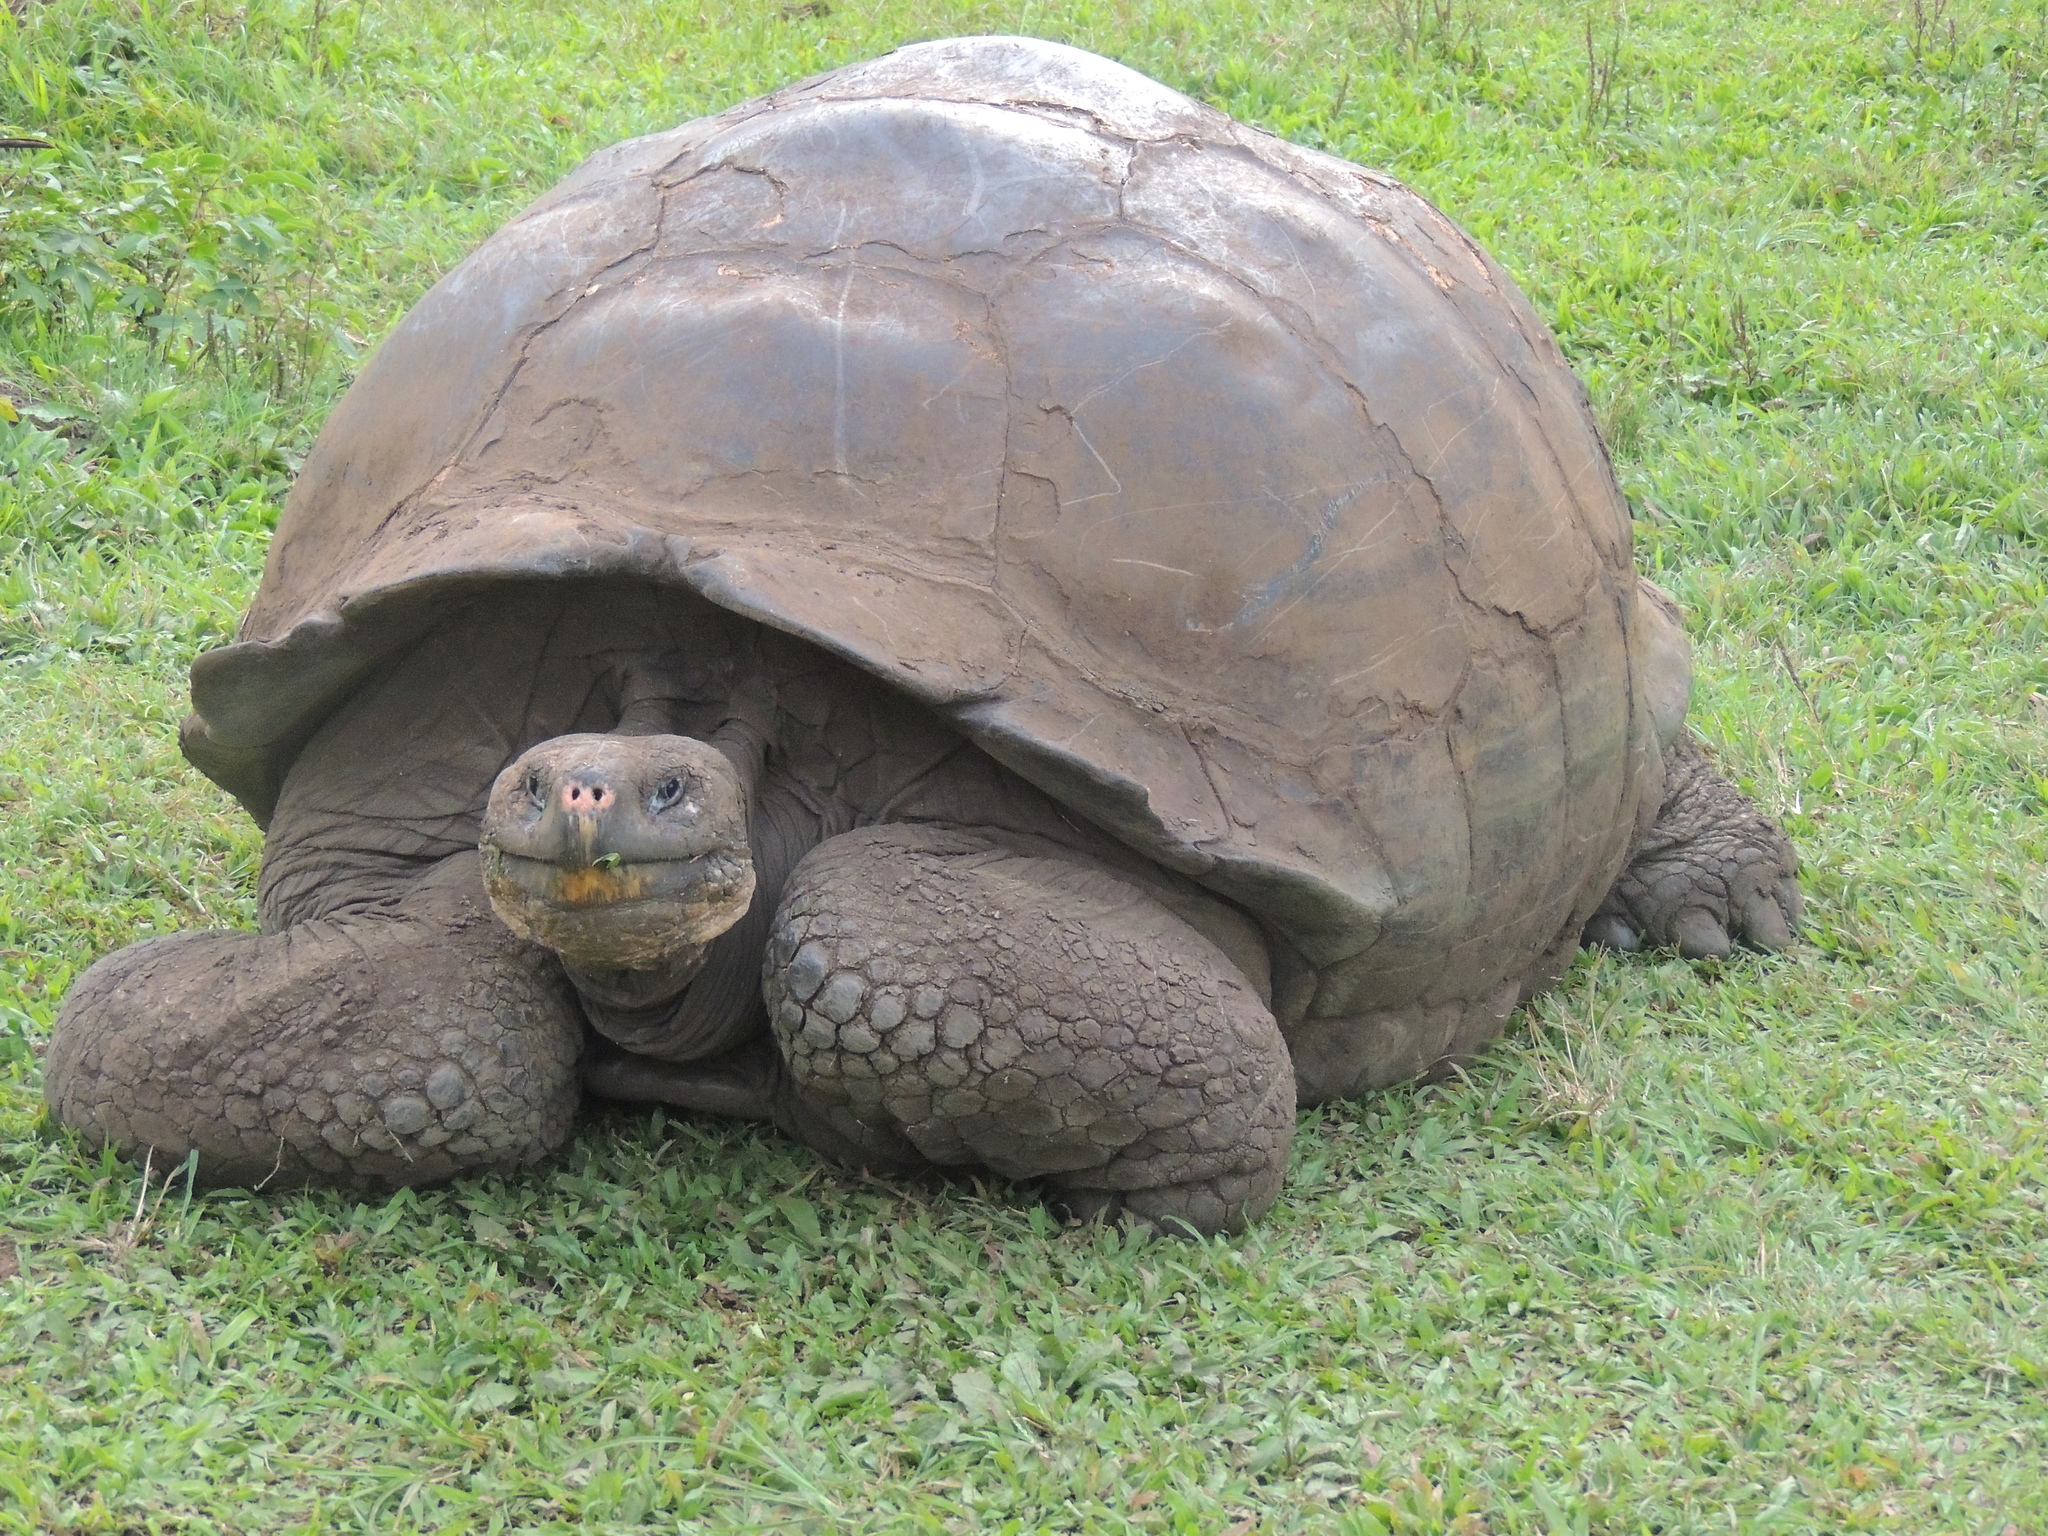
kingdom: Animalia
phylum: Chordata
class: Testudines
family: Testudinidae
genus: Chelonoidis
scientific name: Chelonoidis porteri
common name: Indefatigable island giant tortoise
